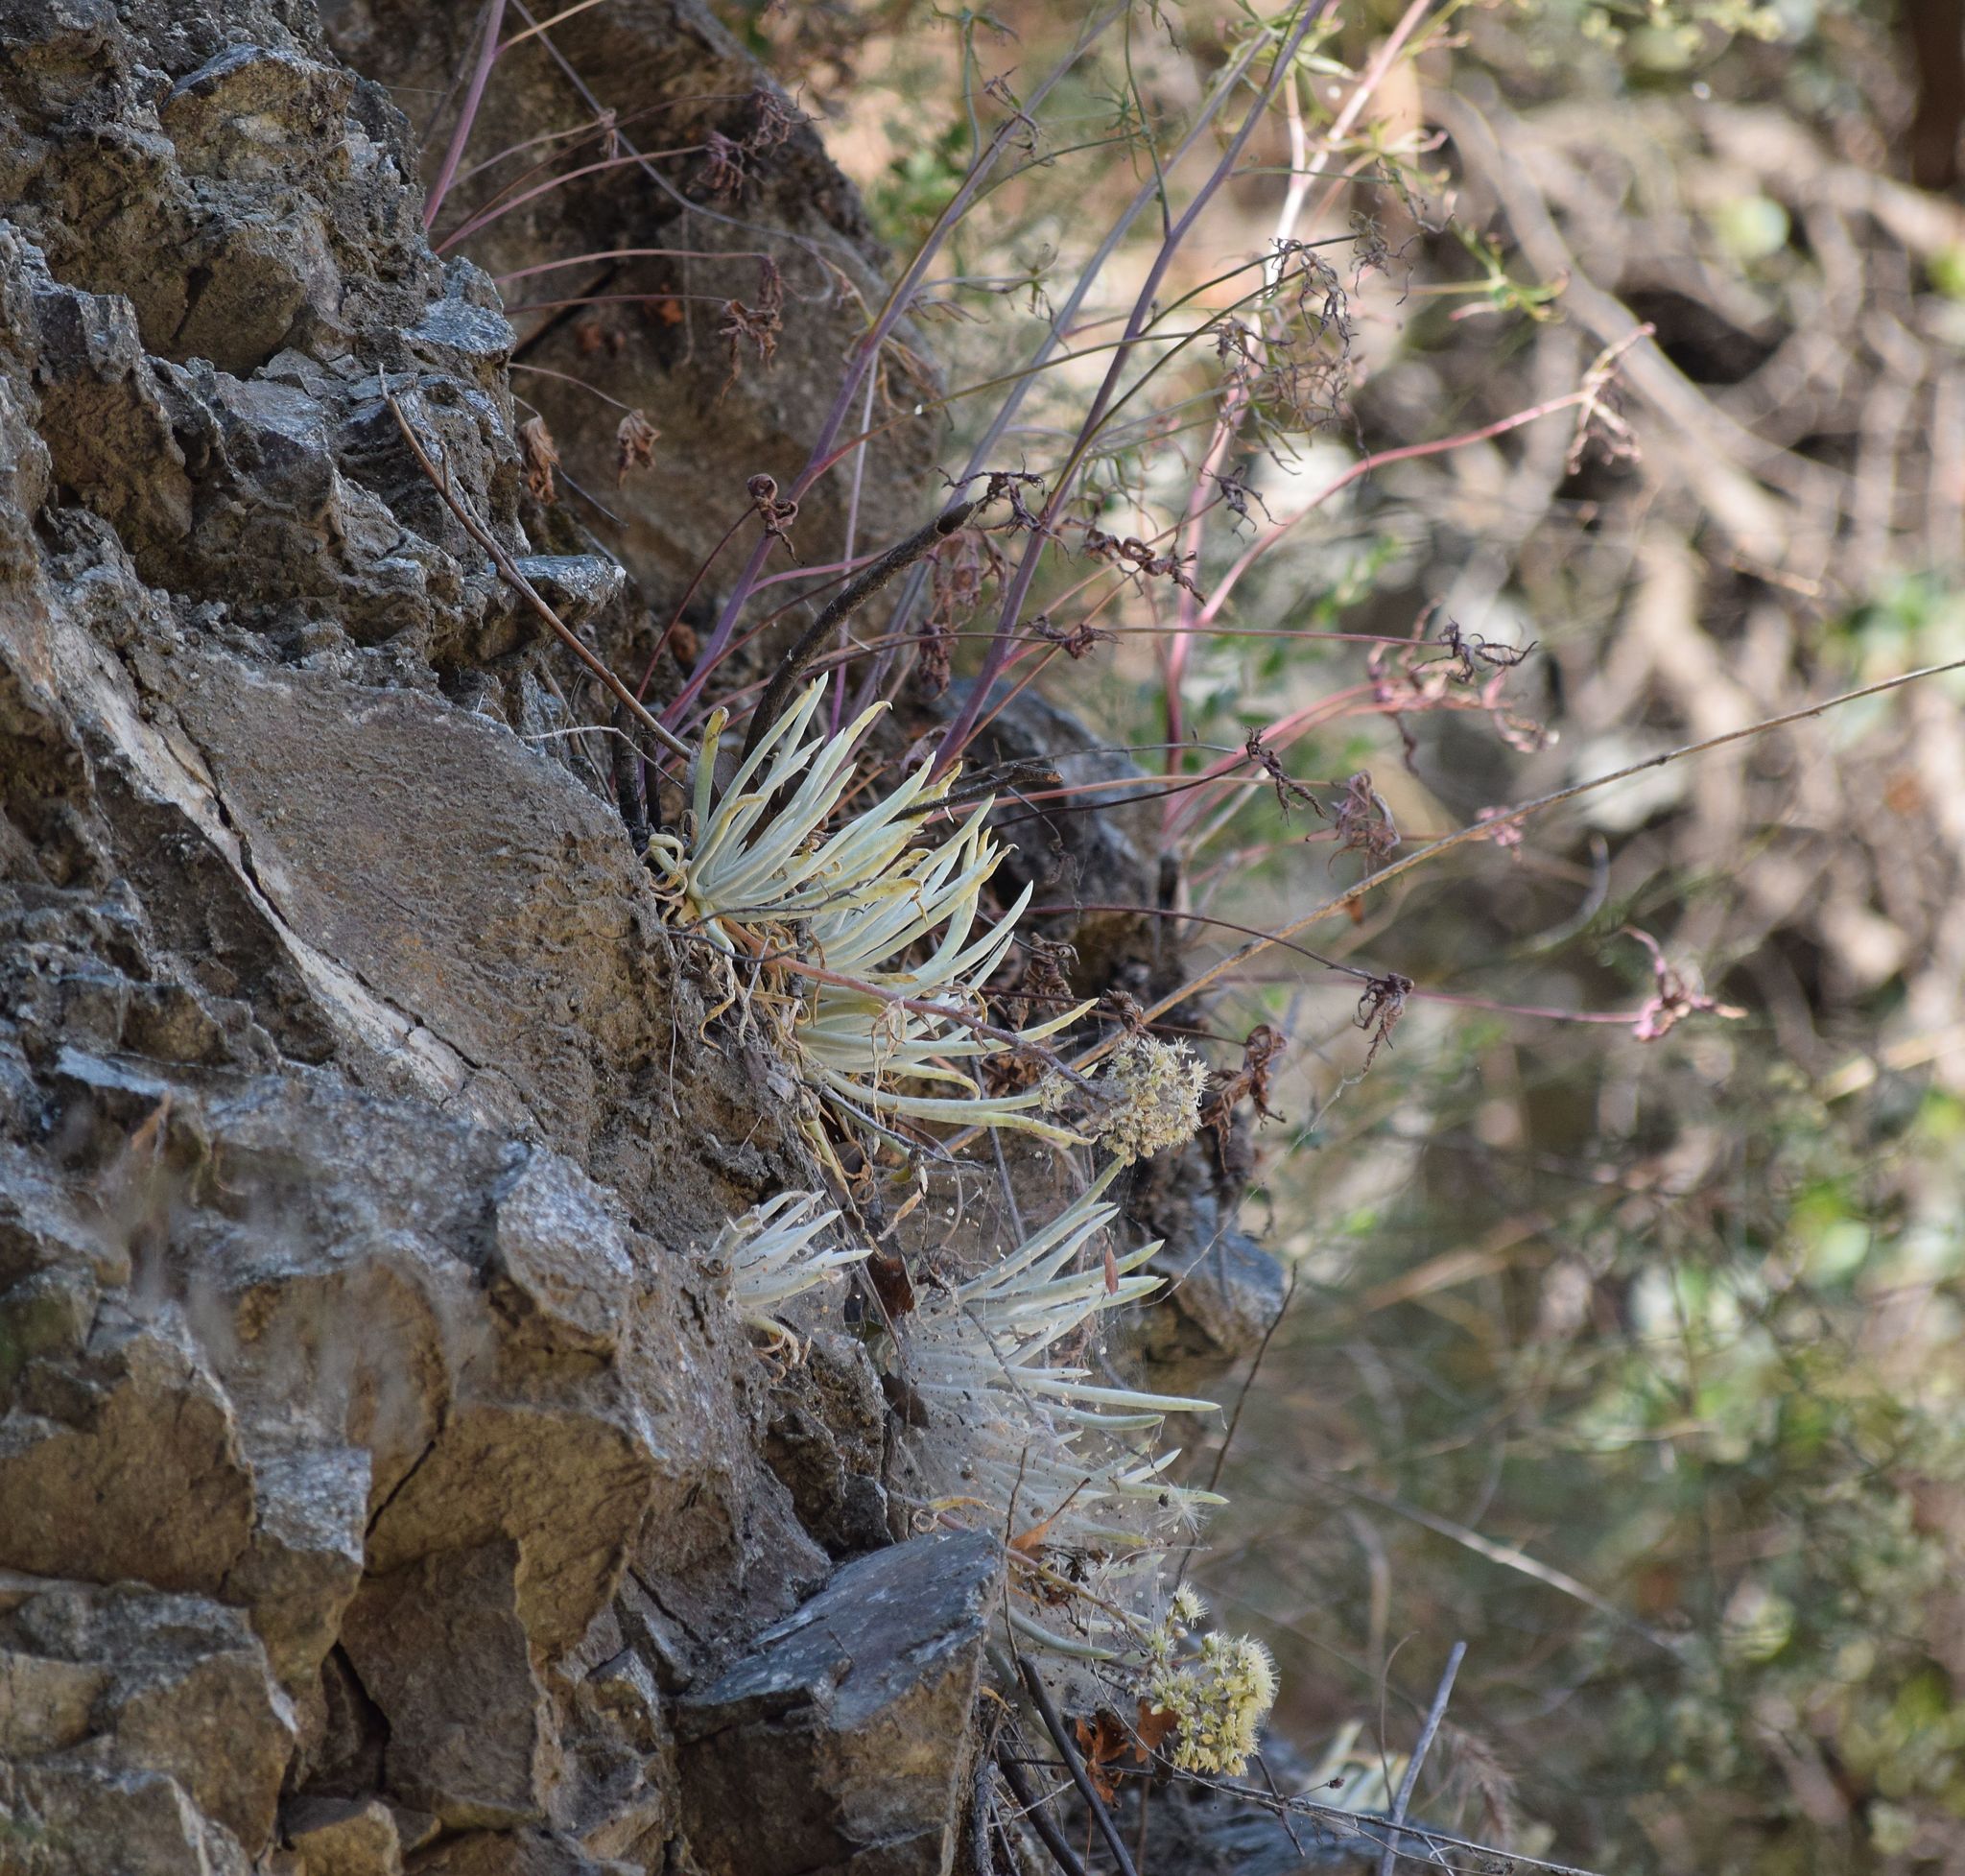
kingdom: Plantae
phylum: Tracheophyta
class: Magnoliopsida
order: Saxifragales
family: Crassulaceae
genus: Dudleya
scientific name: Dudleya densiflora
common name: San gabriel mountains dudleya
